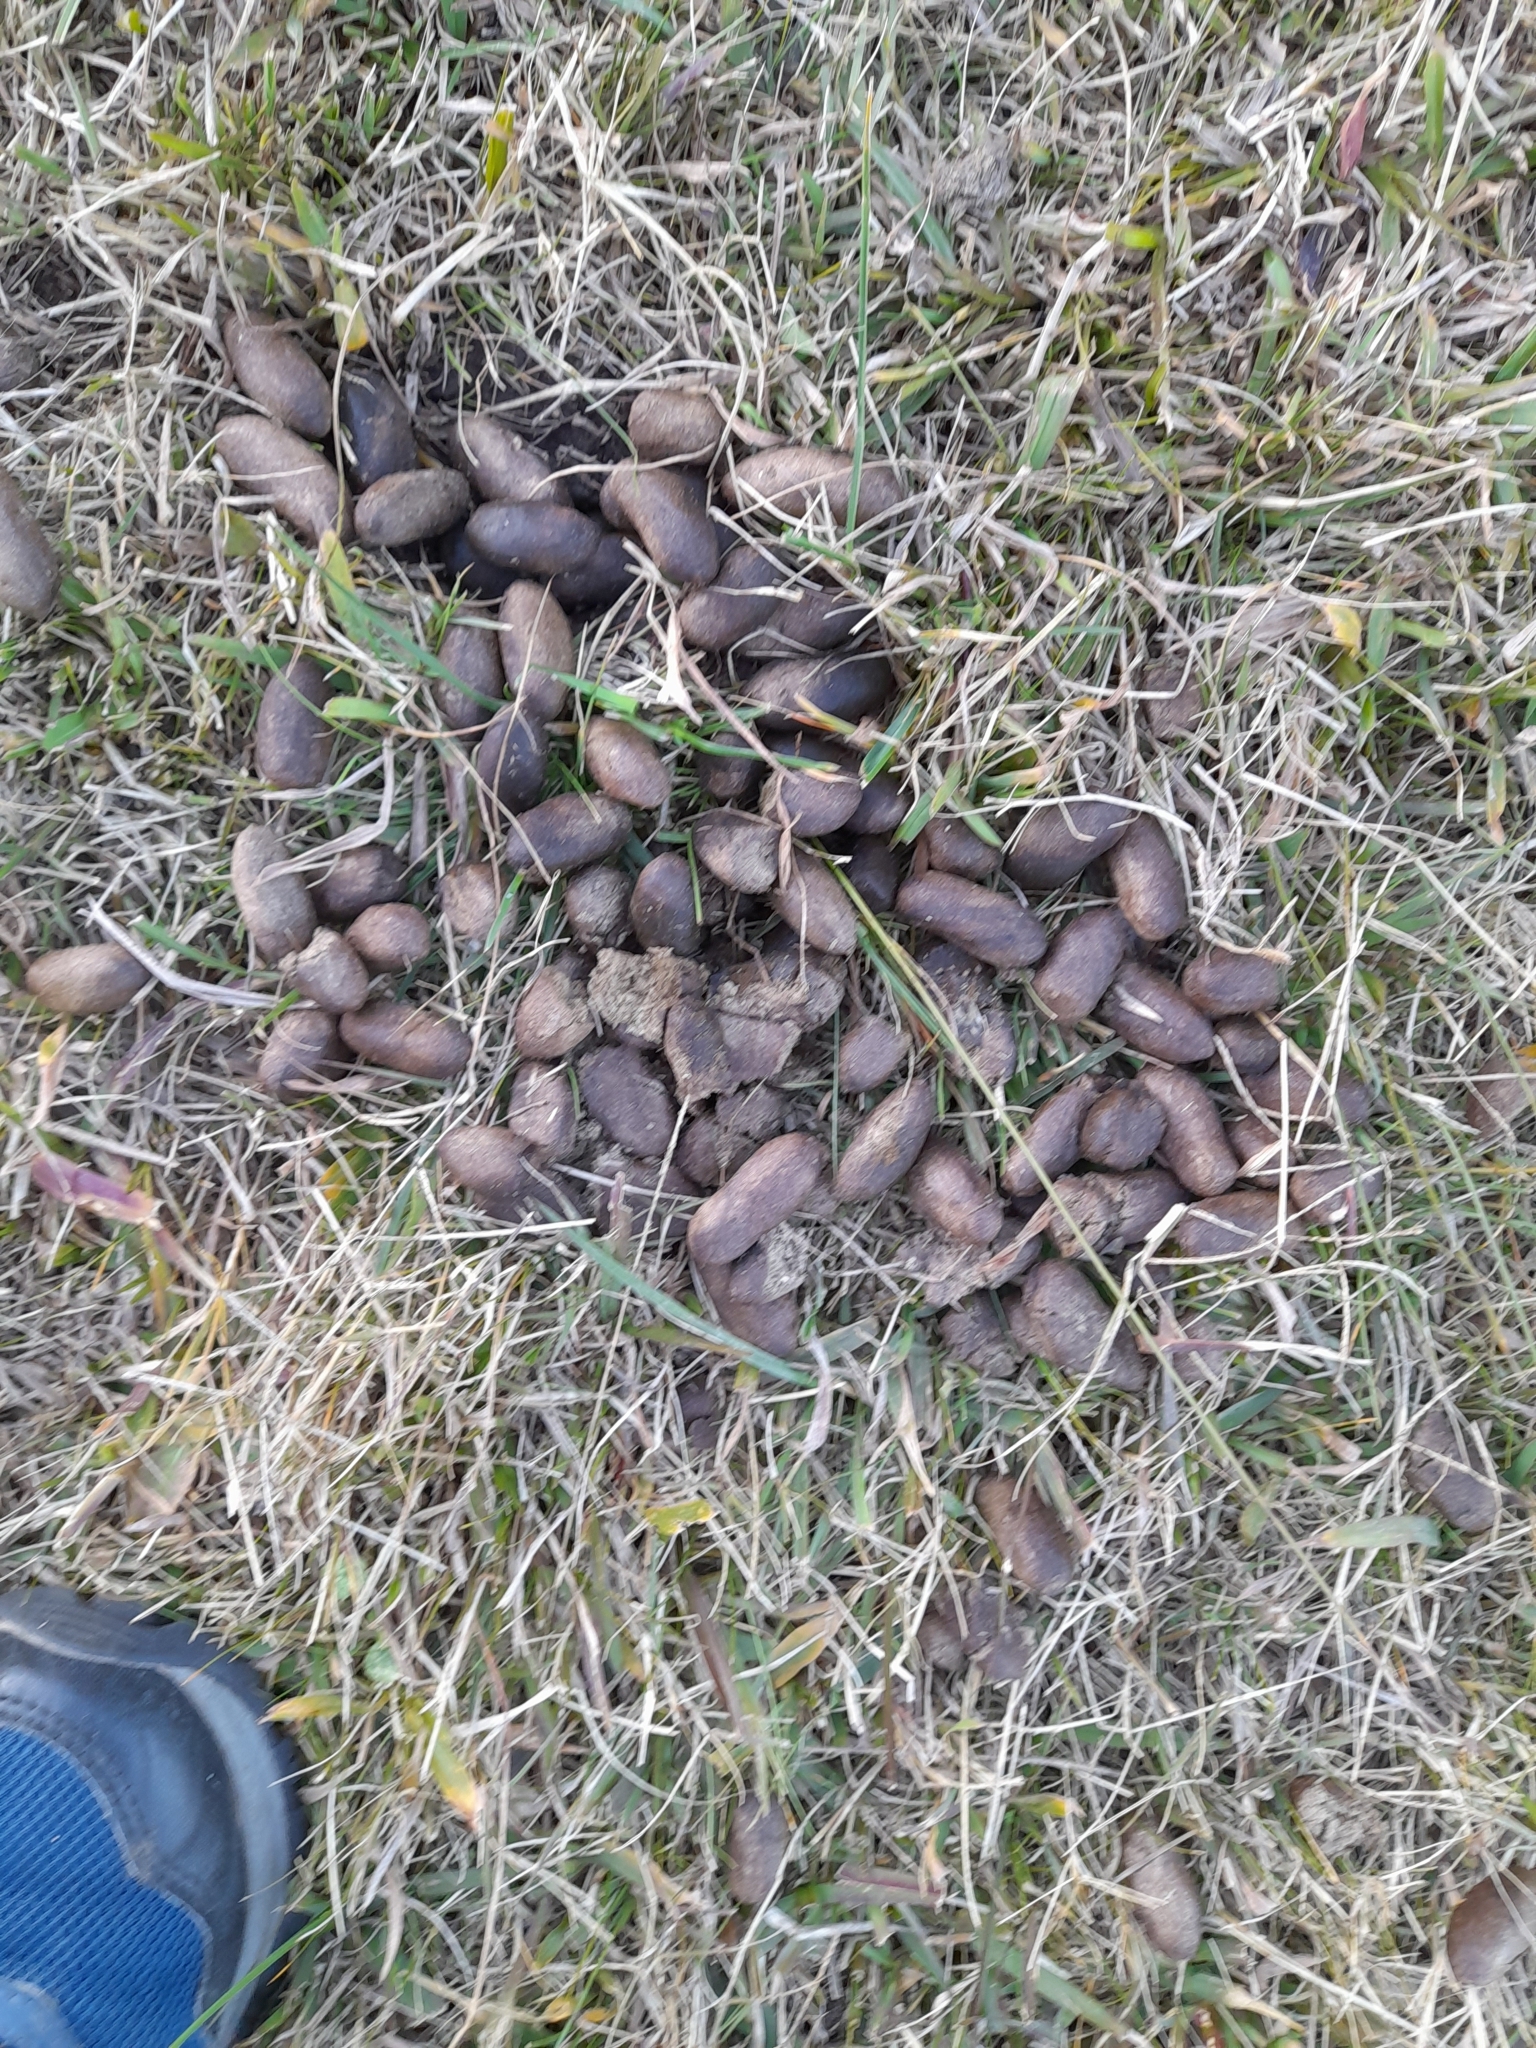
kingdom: Animalia
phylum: Chordata
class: Mammalia
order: Rodentia
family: Caviidae
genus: Hydrochoerus
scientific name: Hydrochoerus hydrochaeris
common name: Capybara
